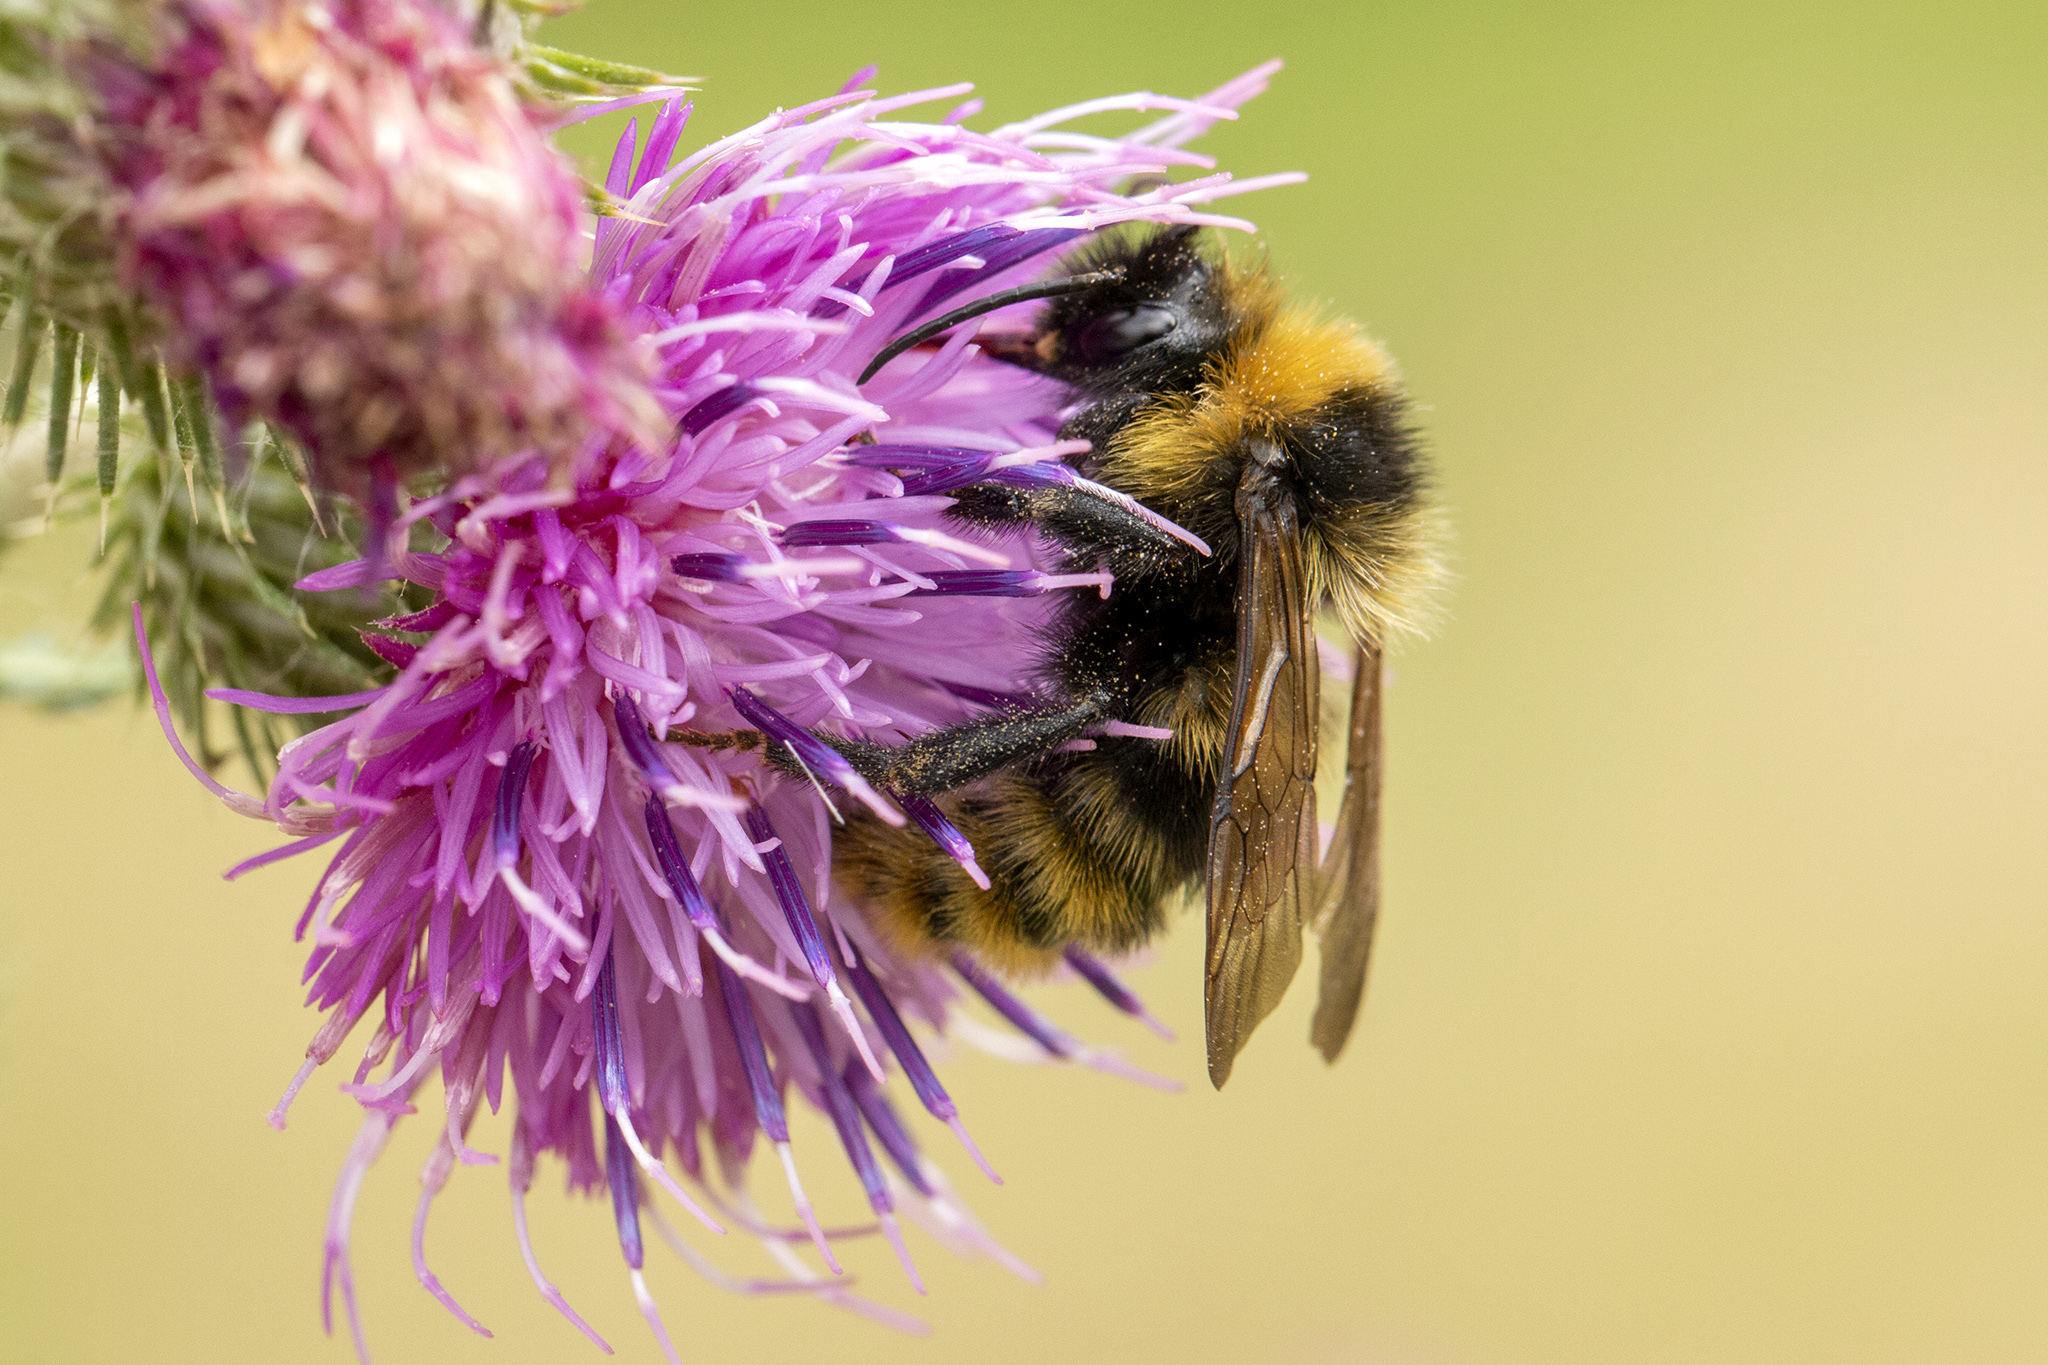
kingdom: Animalia
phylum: Arthropoda
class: Insecta
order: Hymenoptera
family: Apidae
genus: Bombus
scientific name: Bombus campestris
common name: Field cuckoo-bee
